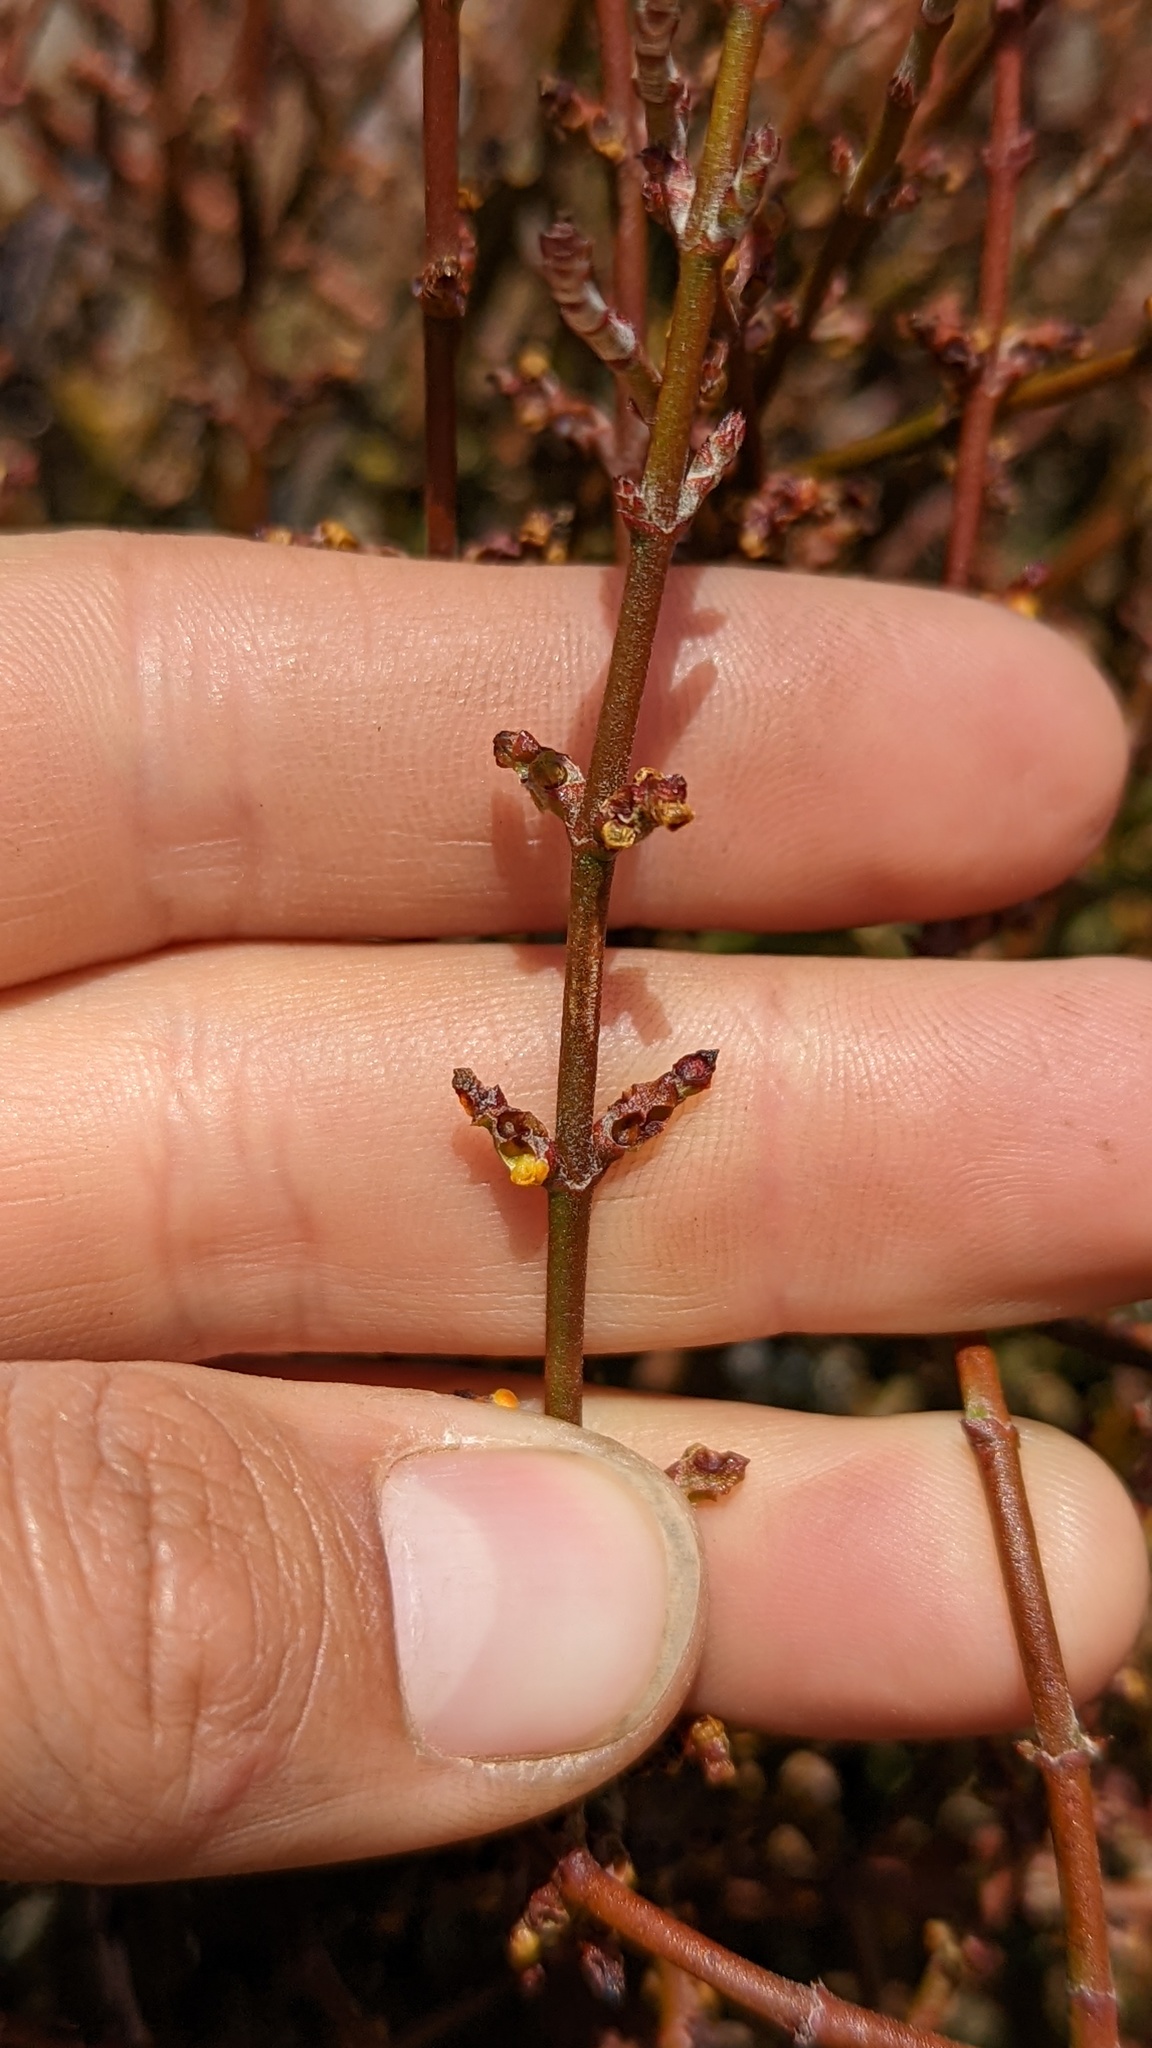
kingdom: Plantae
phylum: Tracheophyta
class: Magnoliopsida
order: Santalales
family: Viscaceae
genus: Phoradendron
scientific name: Phoradendron californicum
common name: Acacia mistletoe
